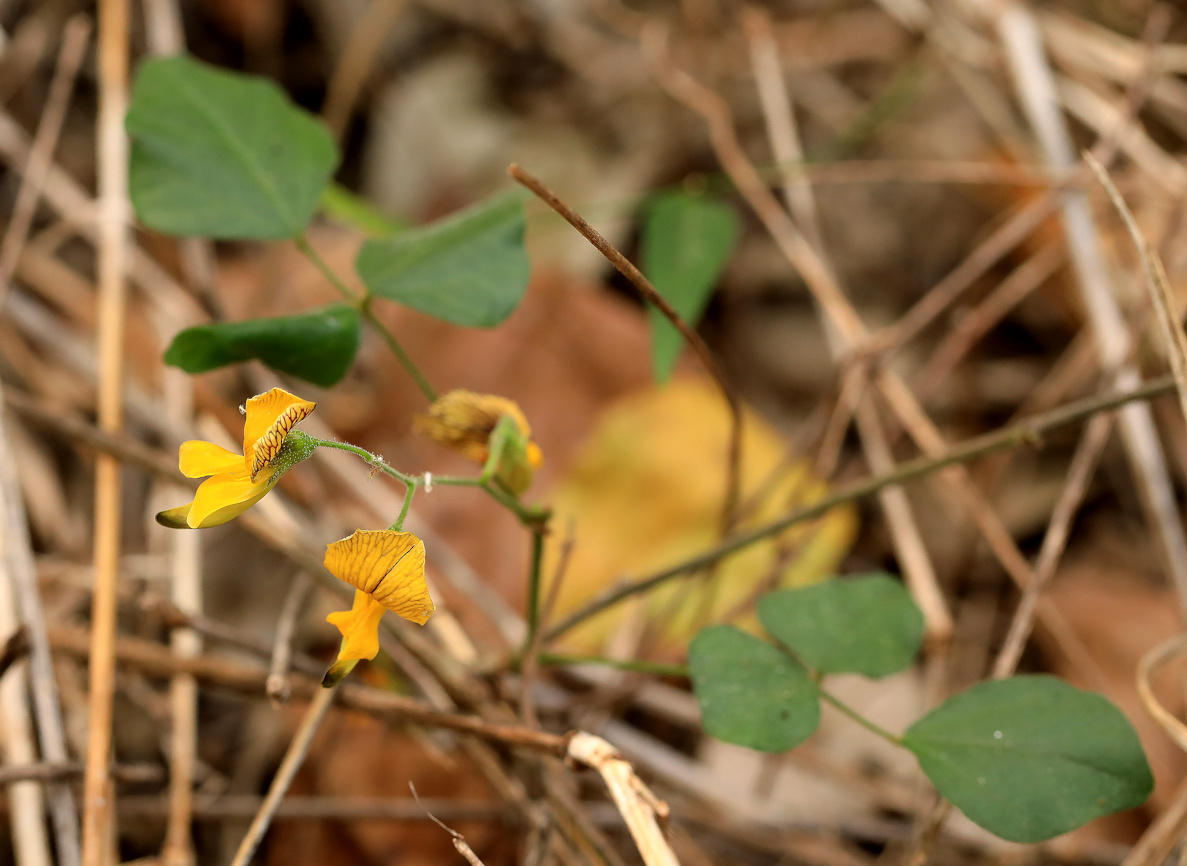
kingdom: Plantae
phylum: Tracheophyta
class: Magnoliopsida
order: Fabales
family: Fabaceae
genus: Rhynchosia
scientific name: Rhynchosia caribaea
